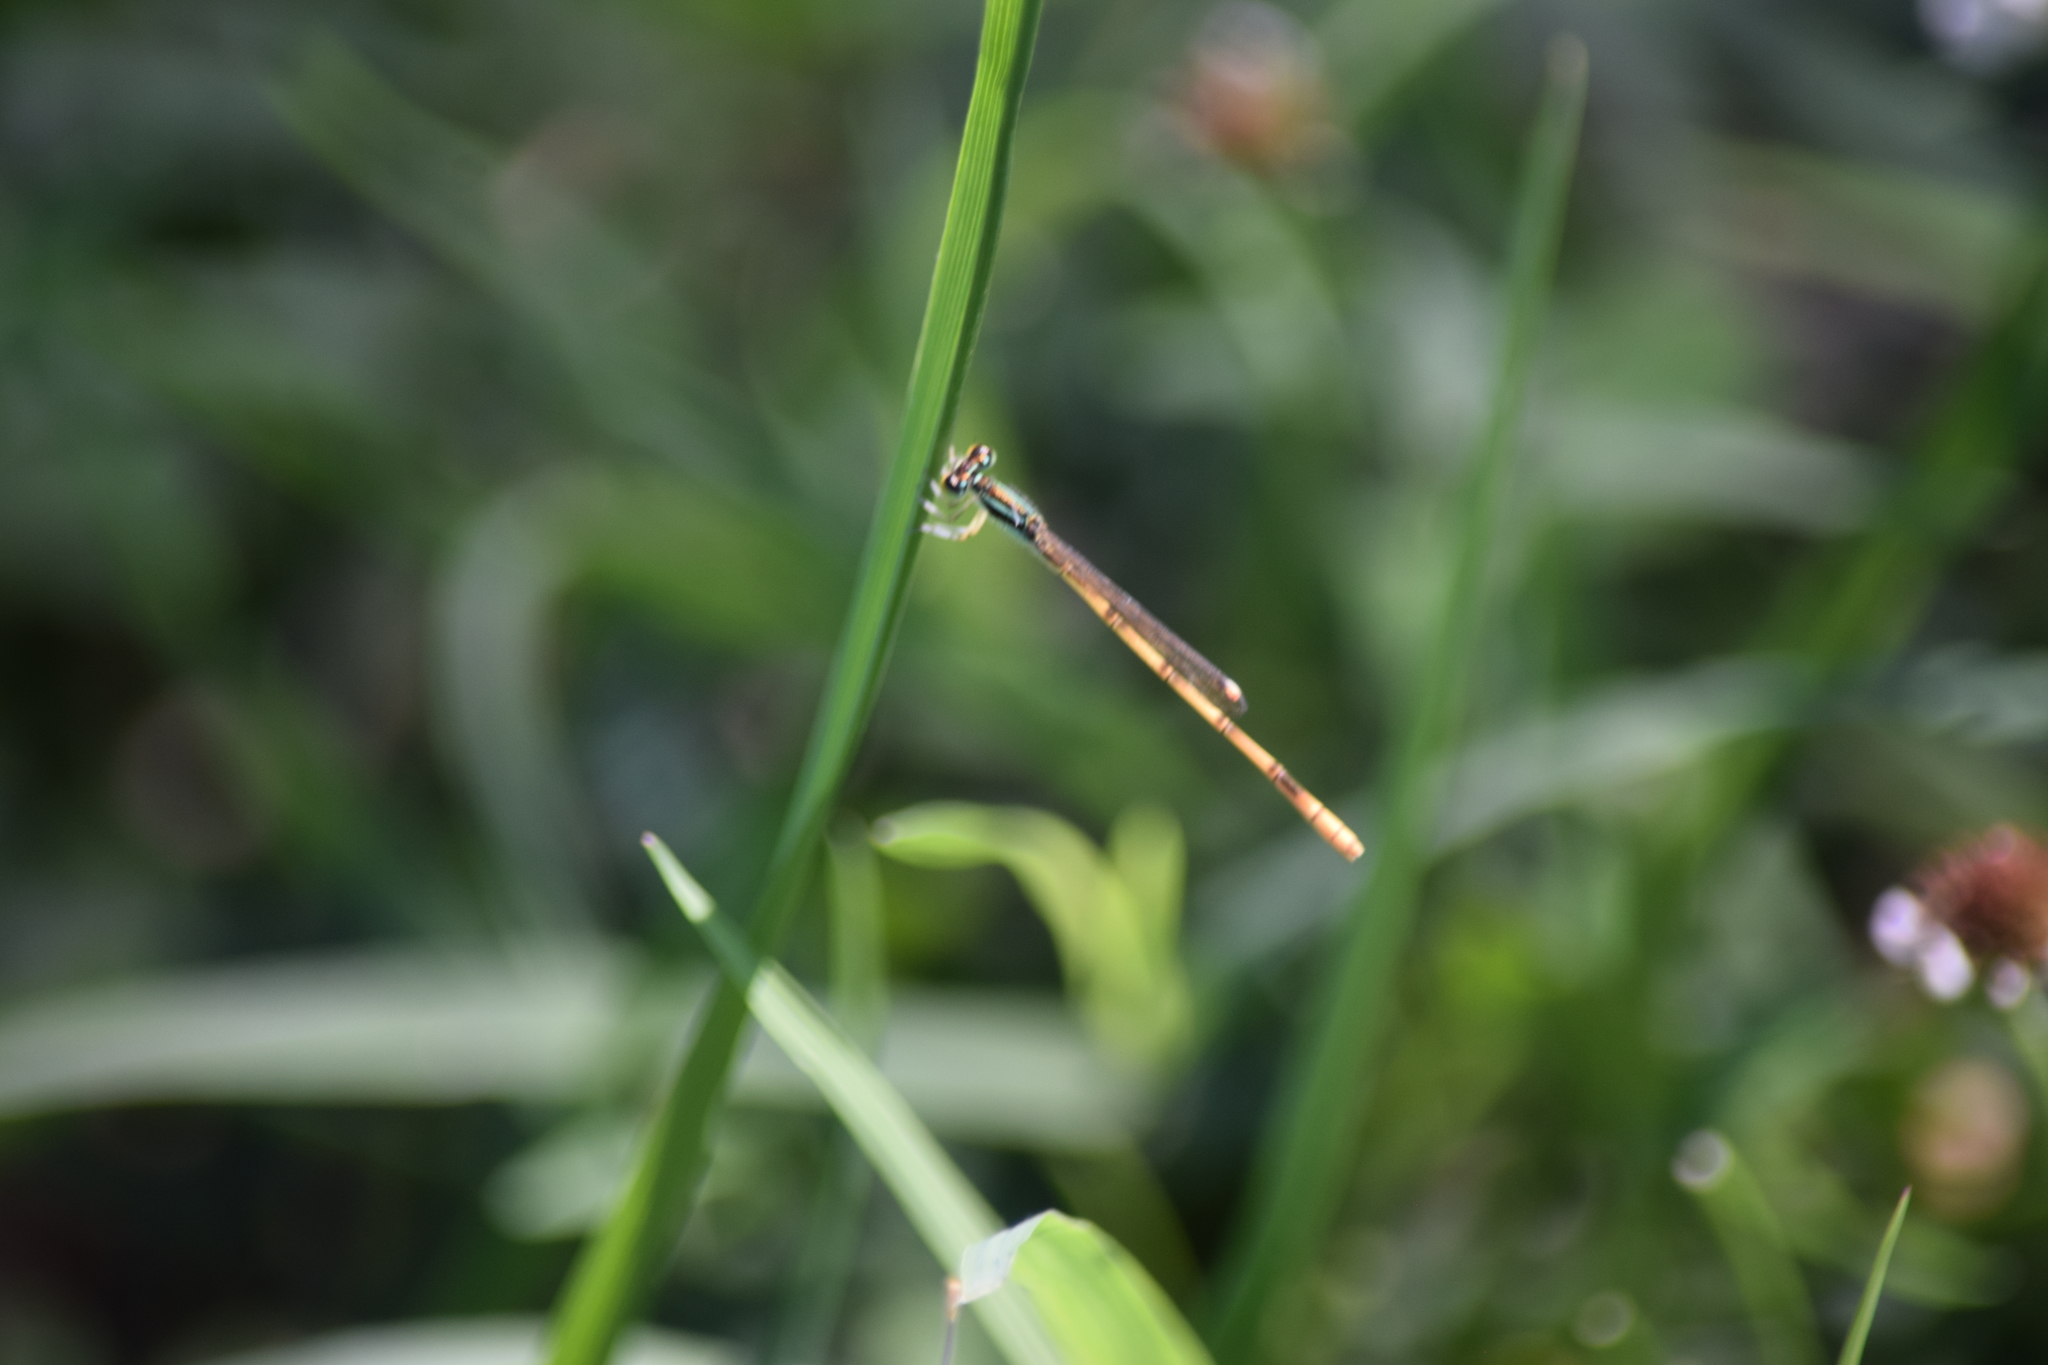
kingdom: Animalia
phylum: Arthropoda
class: Insecta
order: Odonata
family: Coenagrionidae
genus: Ischnura
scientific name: Ischnura hastata
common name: Citrine forktail
